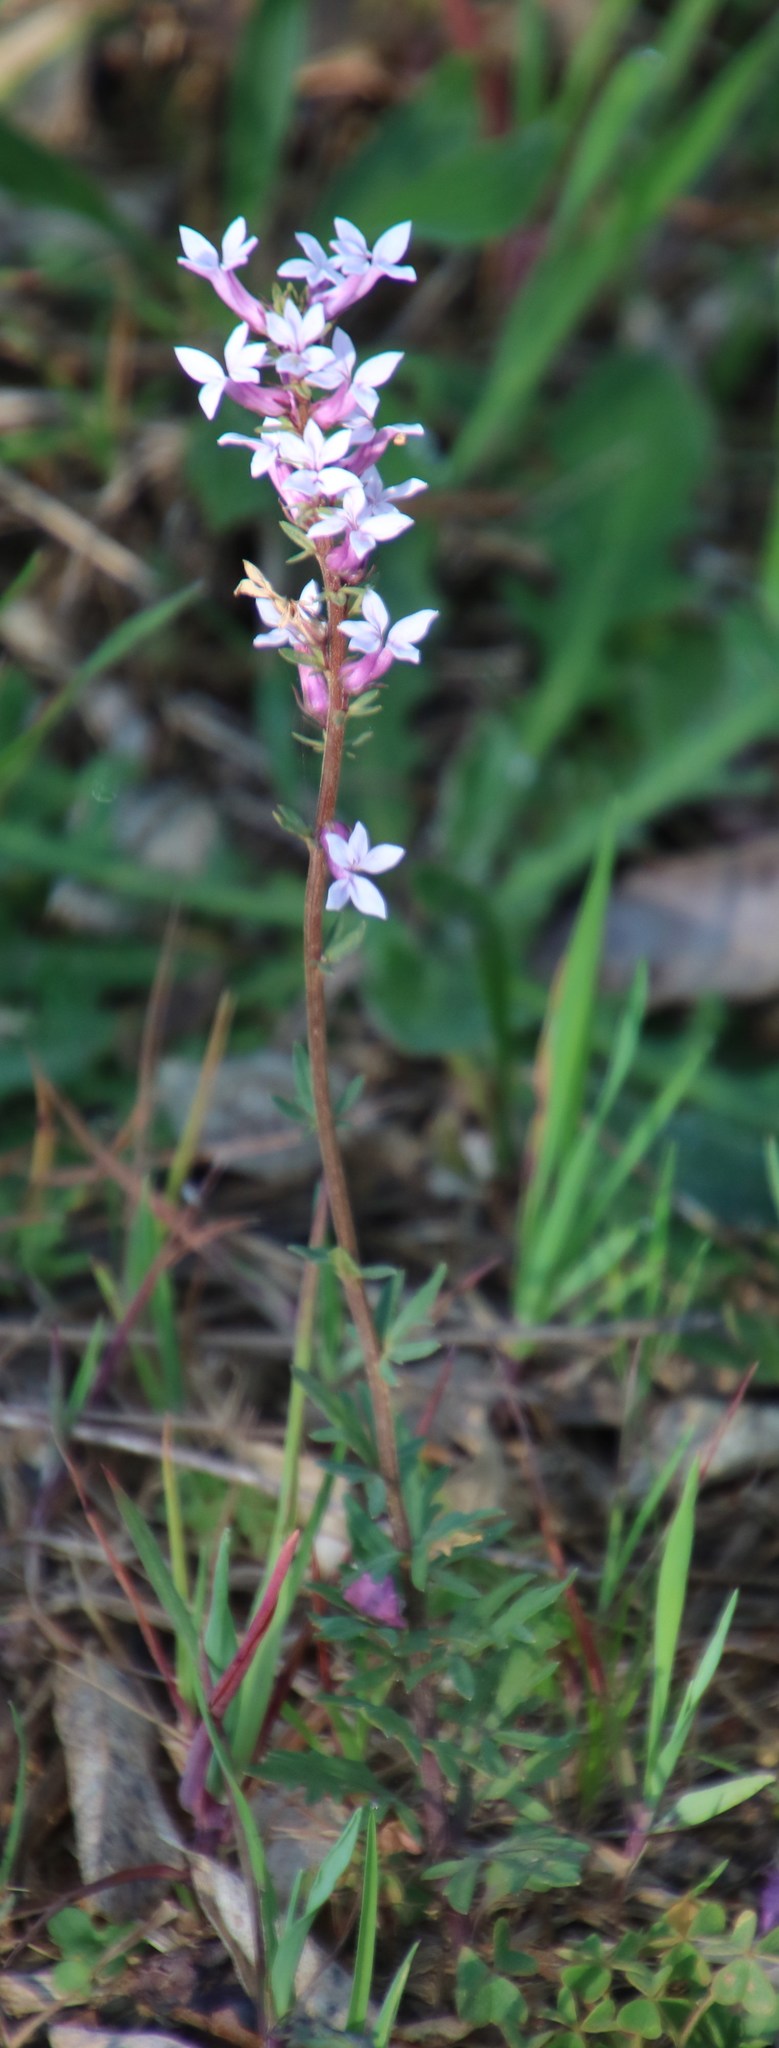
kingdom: Plantae
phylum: Tracheophyta
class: Magnoliopsida
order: Asterales
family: Campanulaceae
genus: Cyphia
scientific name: Cyphia bulbosa
